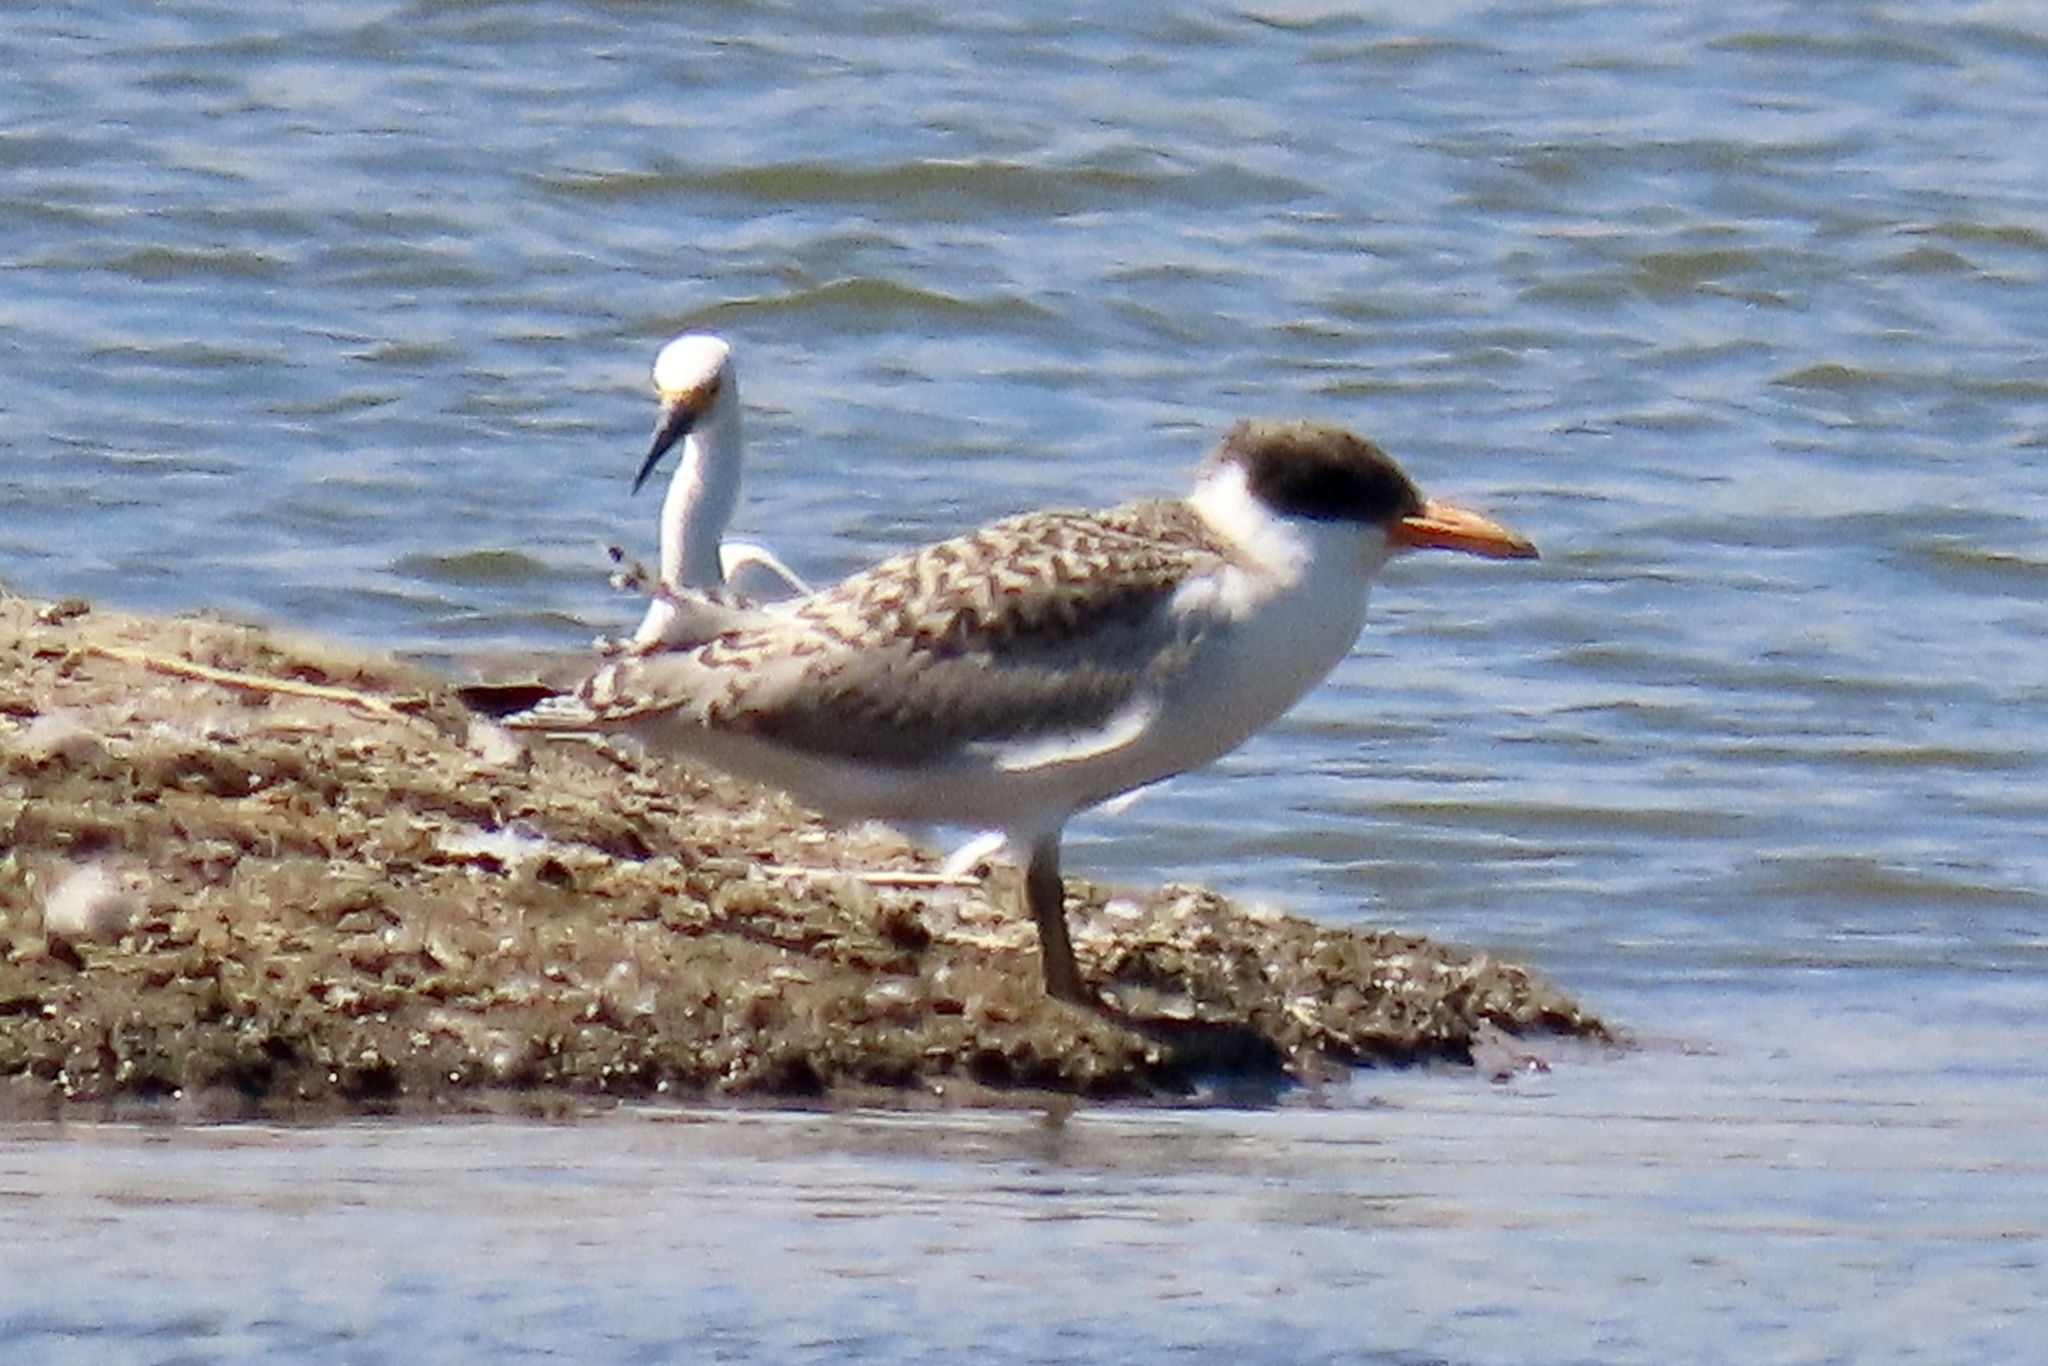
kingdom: Animalia
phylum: Chordata
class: Aves
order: Charadriiformes
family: Laridae
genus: Hydroprogne
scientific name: Hydroprogne caspia
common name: Caspian tern
